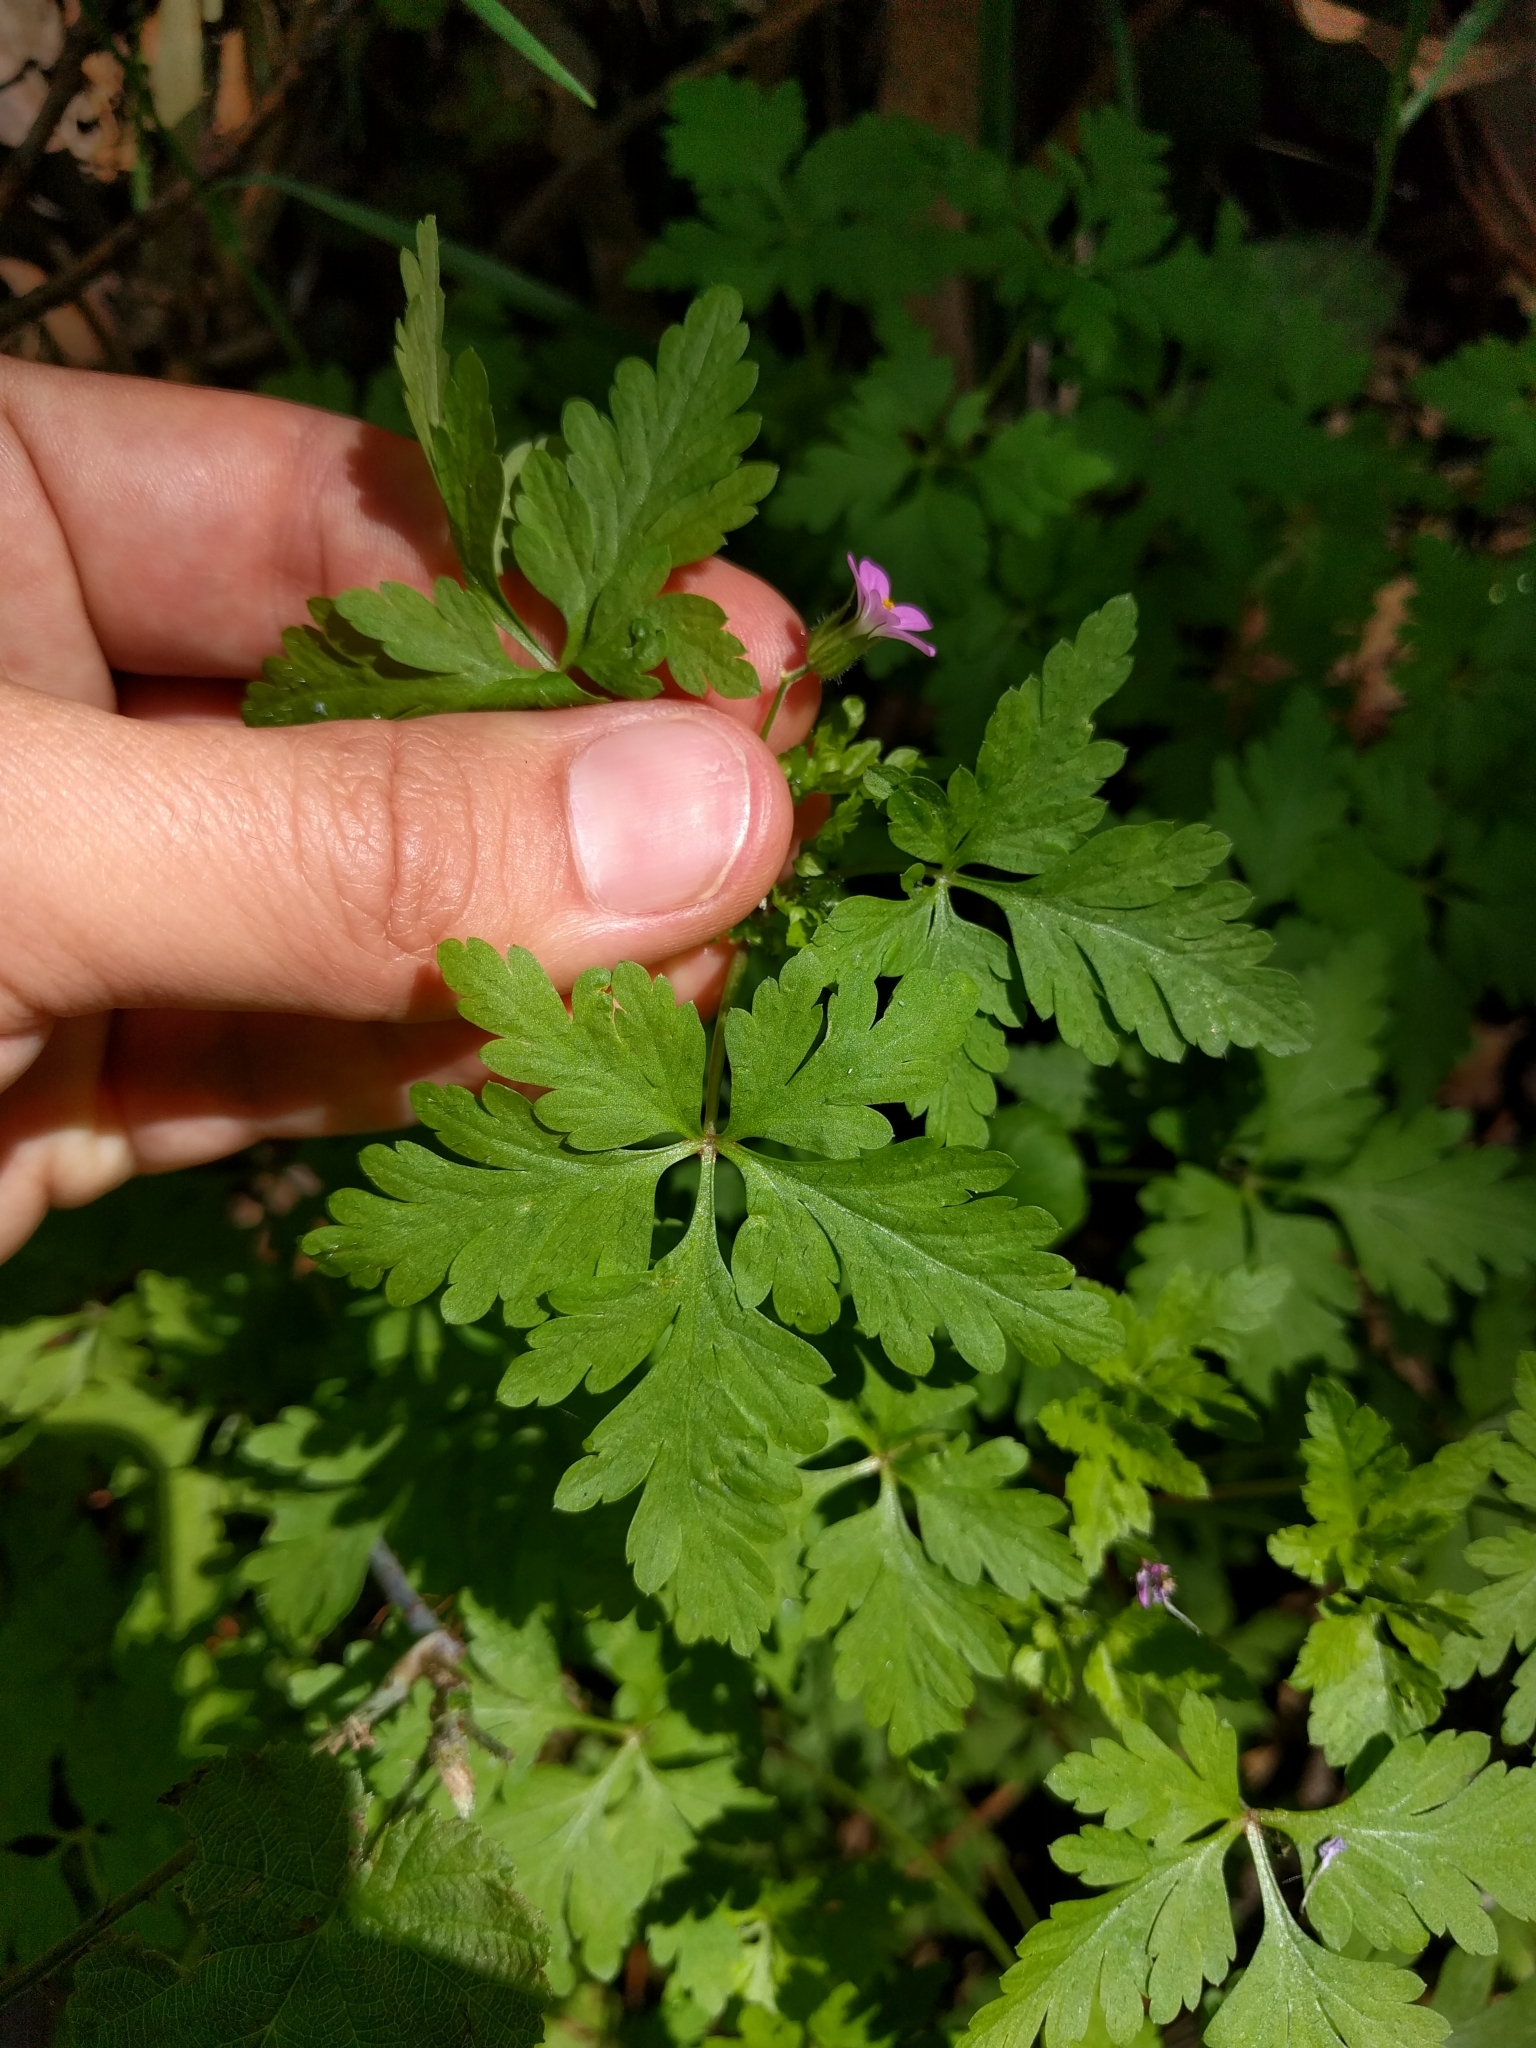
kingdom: Plantae
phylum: Tracheophyta
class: Magnoliopsida
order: Geraniales
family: Geraniaceae
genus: Geranium
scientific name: Geranium purpureum
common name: Little-robin
